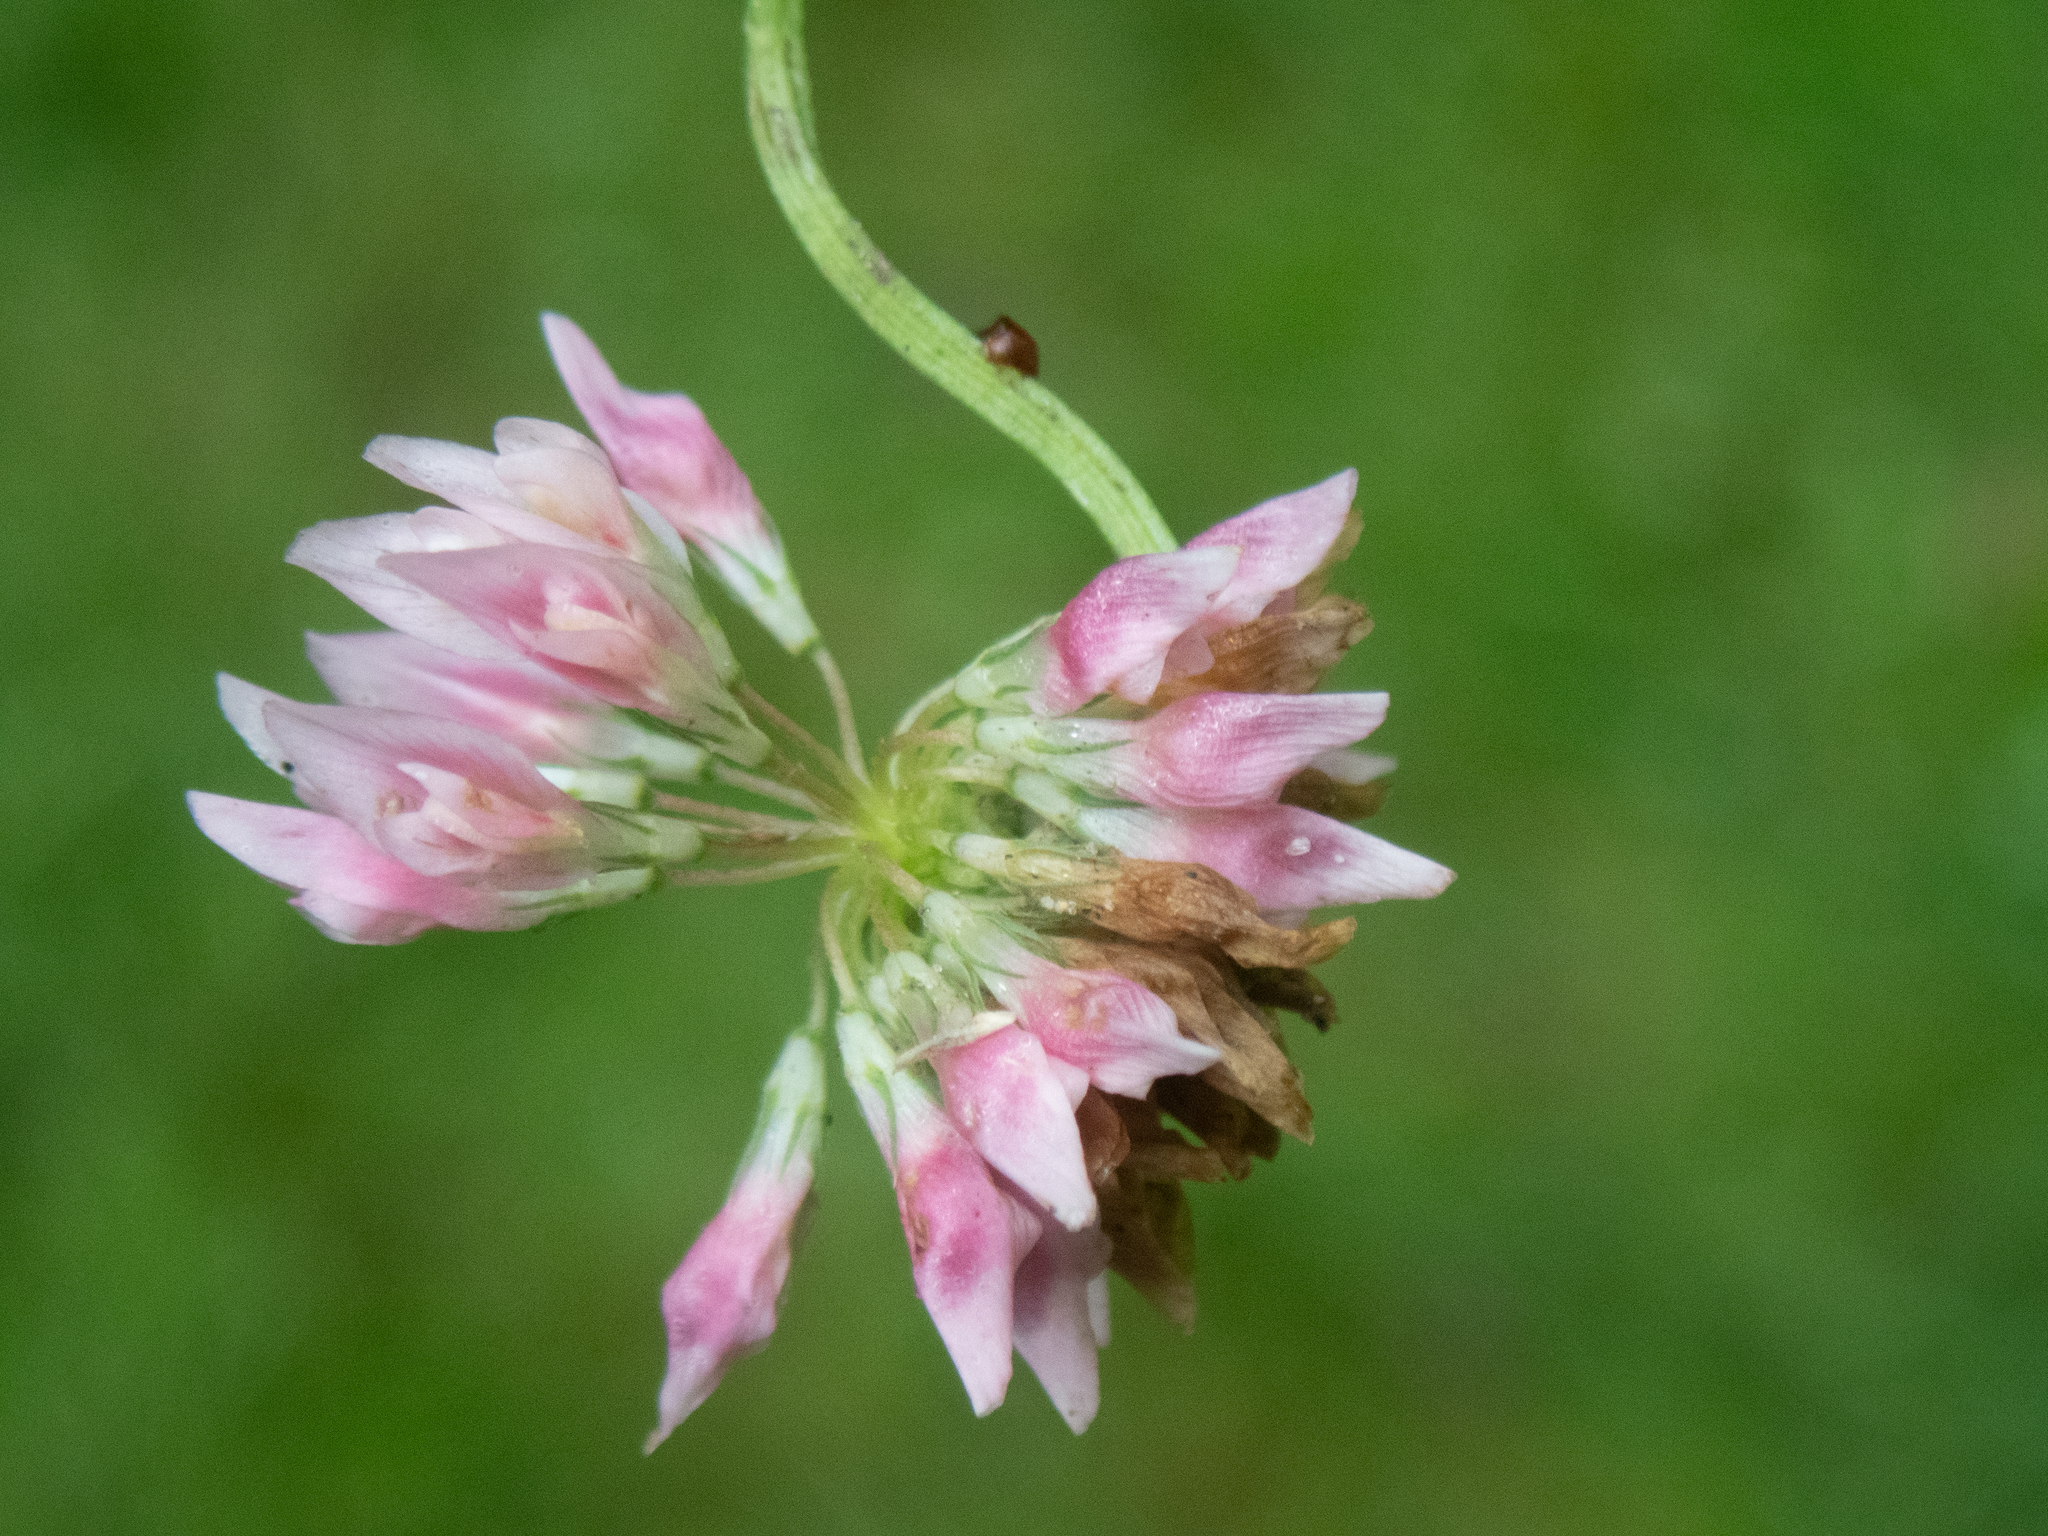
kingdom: Plantae
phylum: Tracheophyta
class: Magnoliopsida
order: Fabales
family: Fabaceae
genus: Trifolium
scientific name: Trifolium hybridum
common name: Alsike clover
